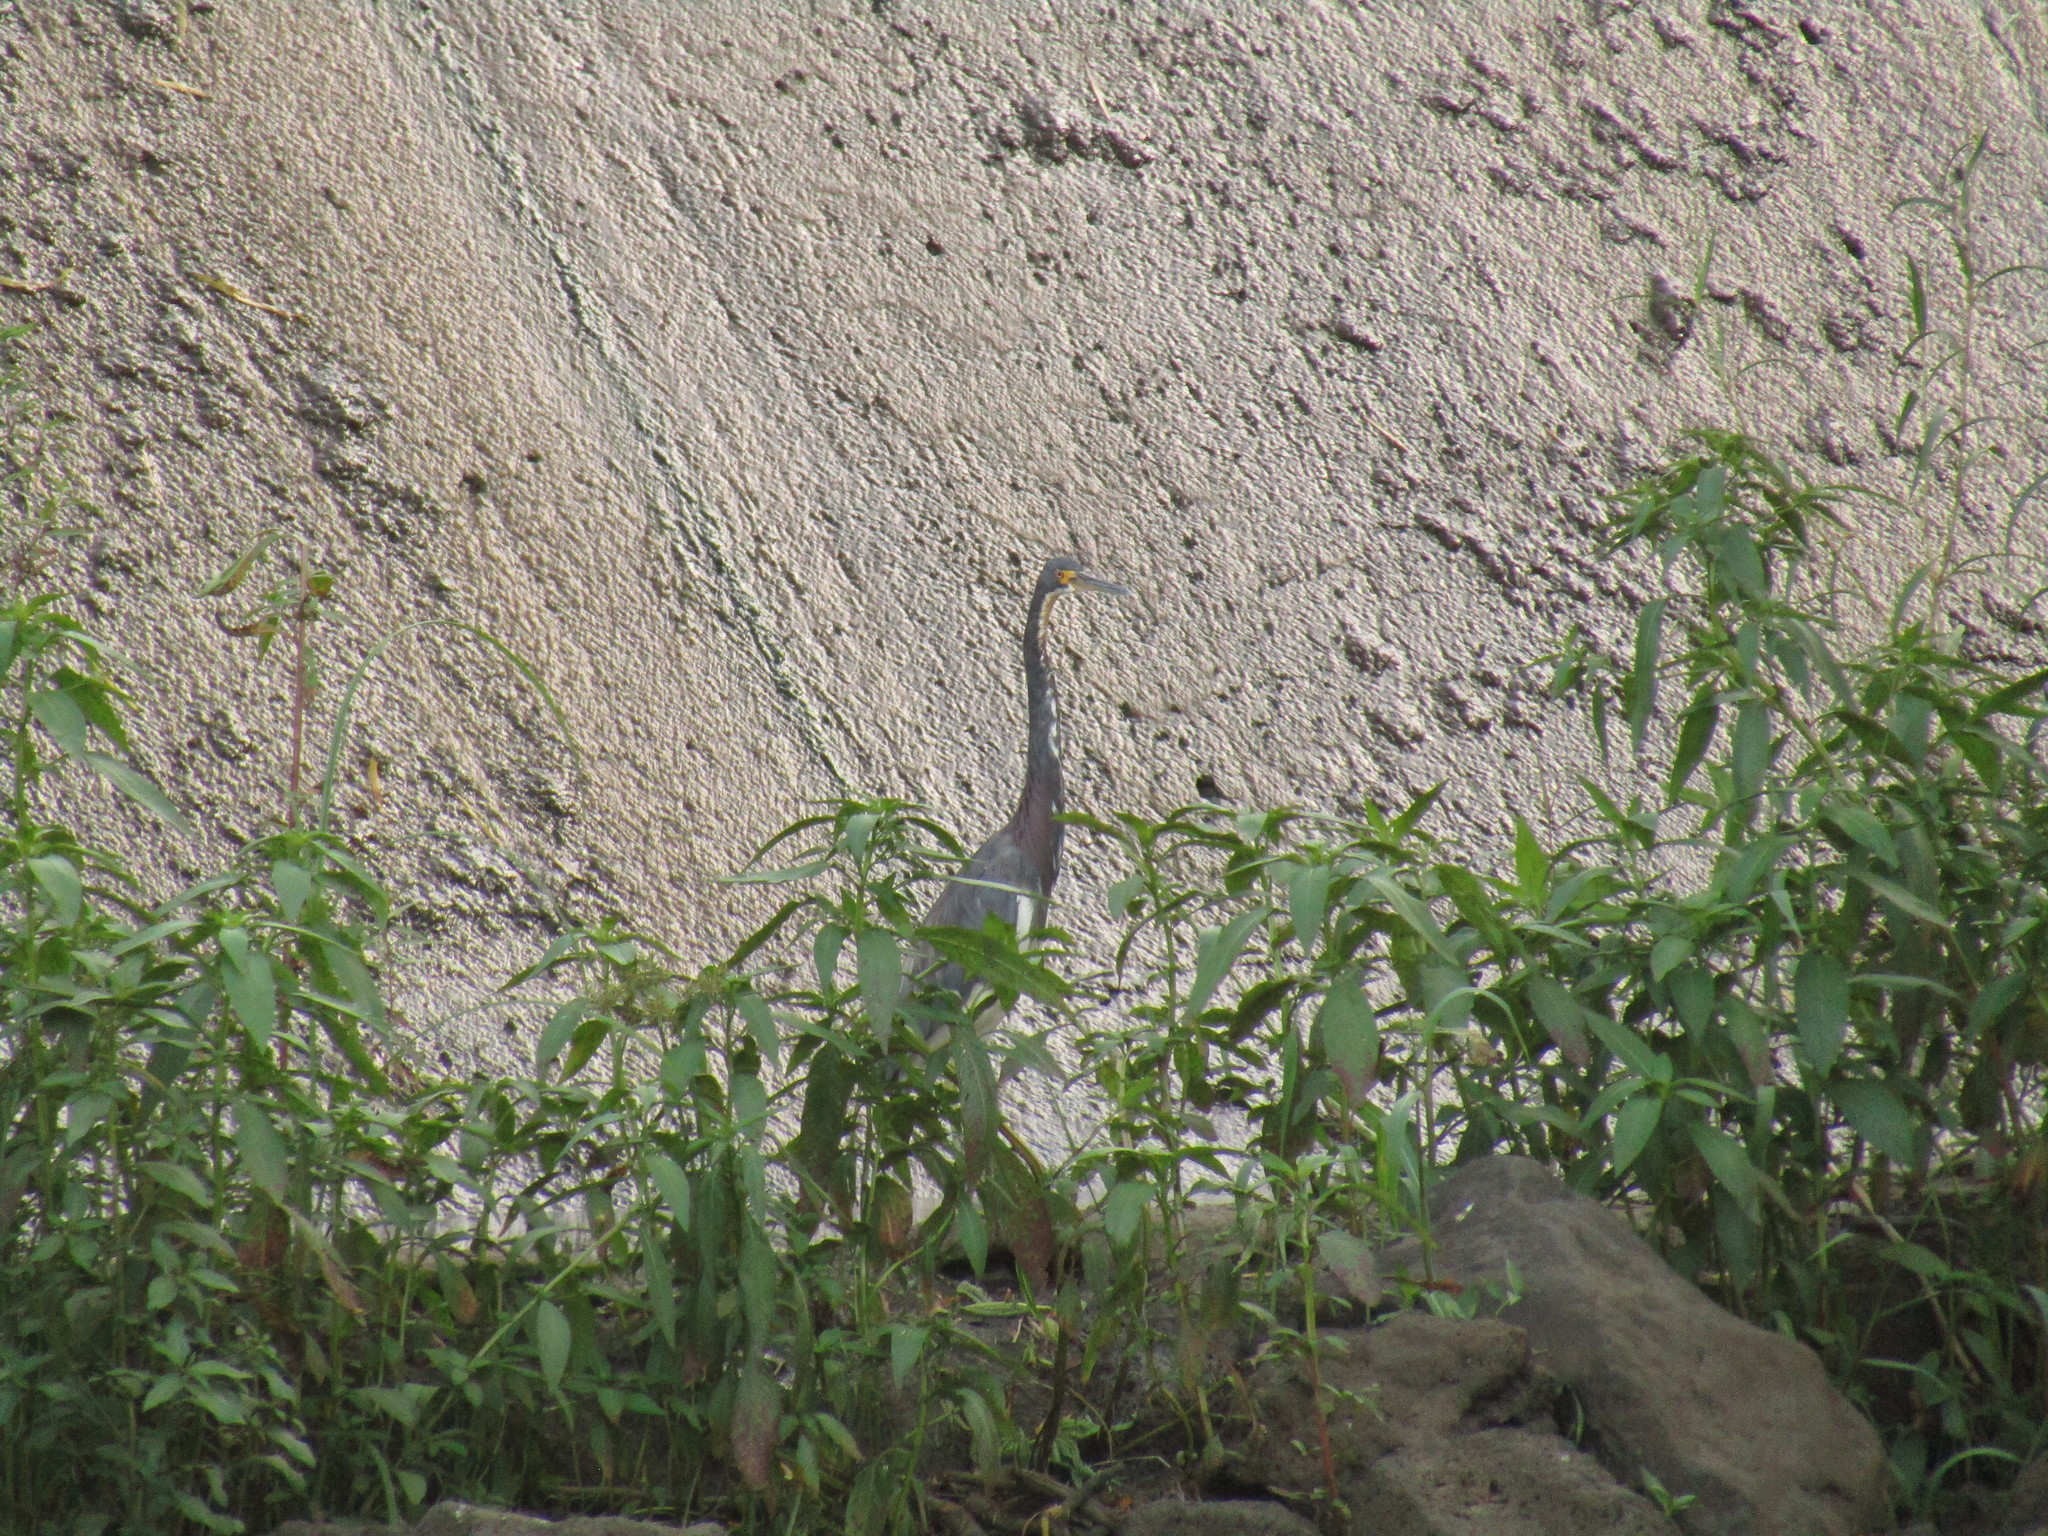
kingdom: Animalia
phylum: Chordata
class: Aves
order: Pelecaniformes
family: Ardeidae
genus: Egretta
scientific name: Egretta tricolor
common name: Tricolored heron
